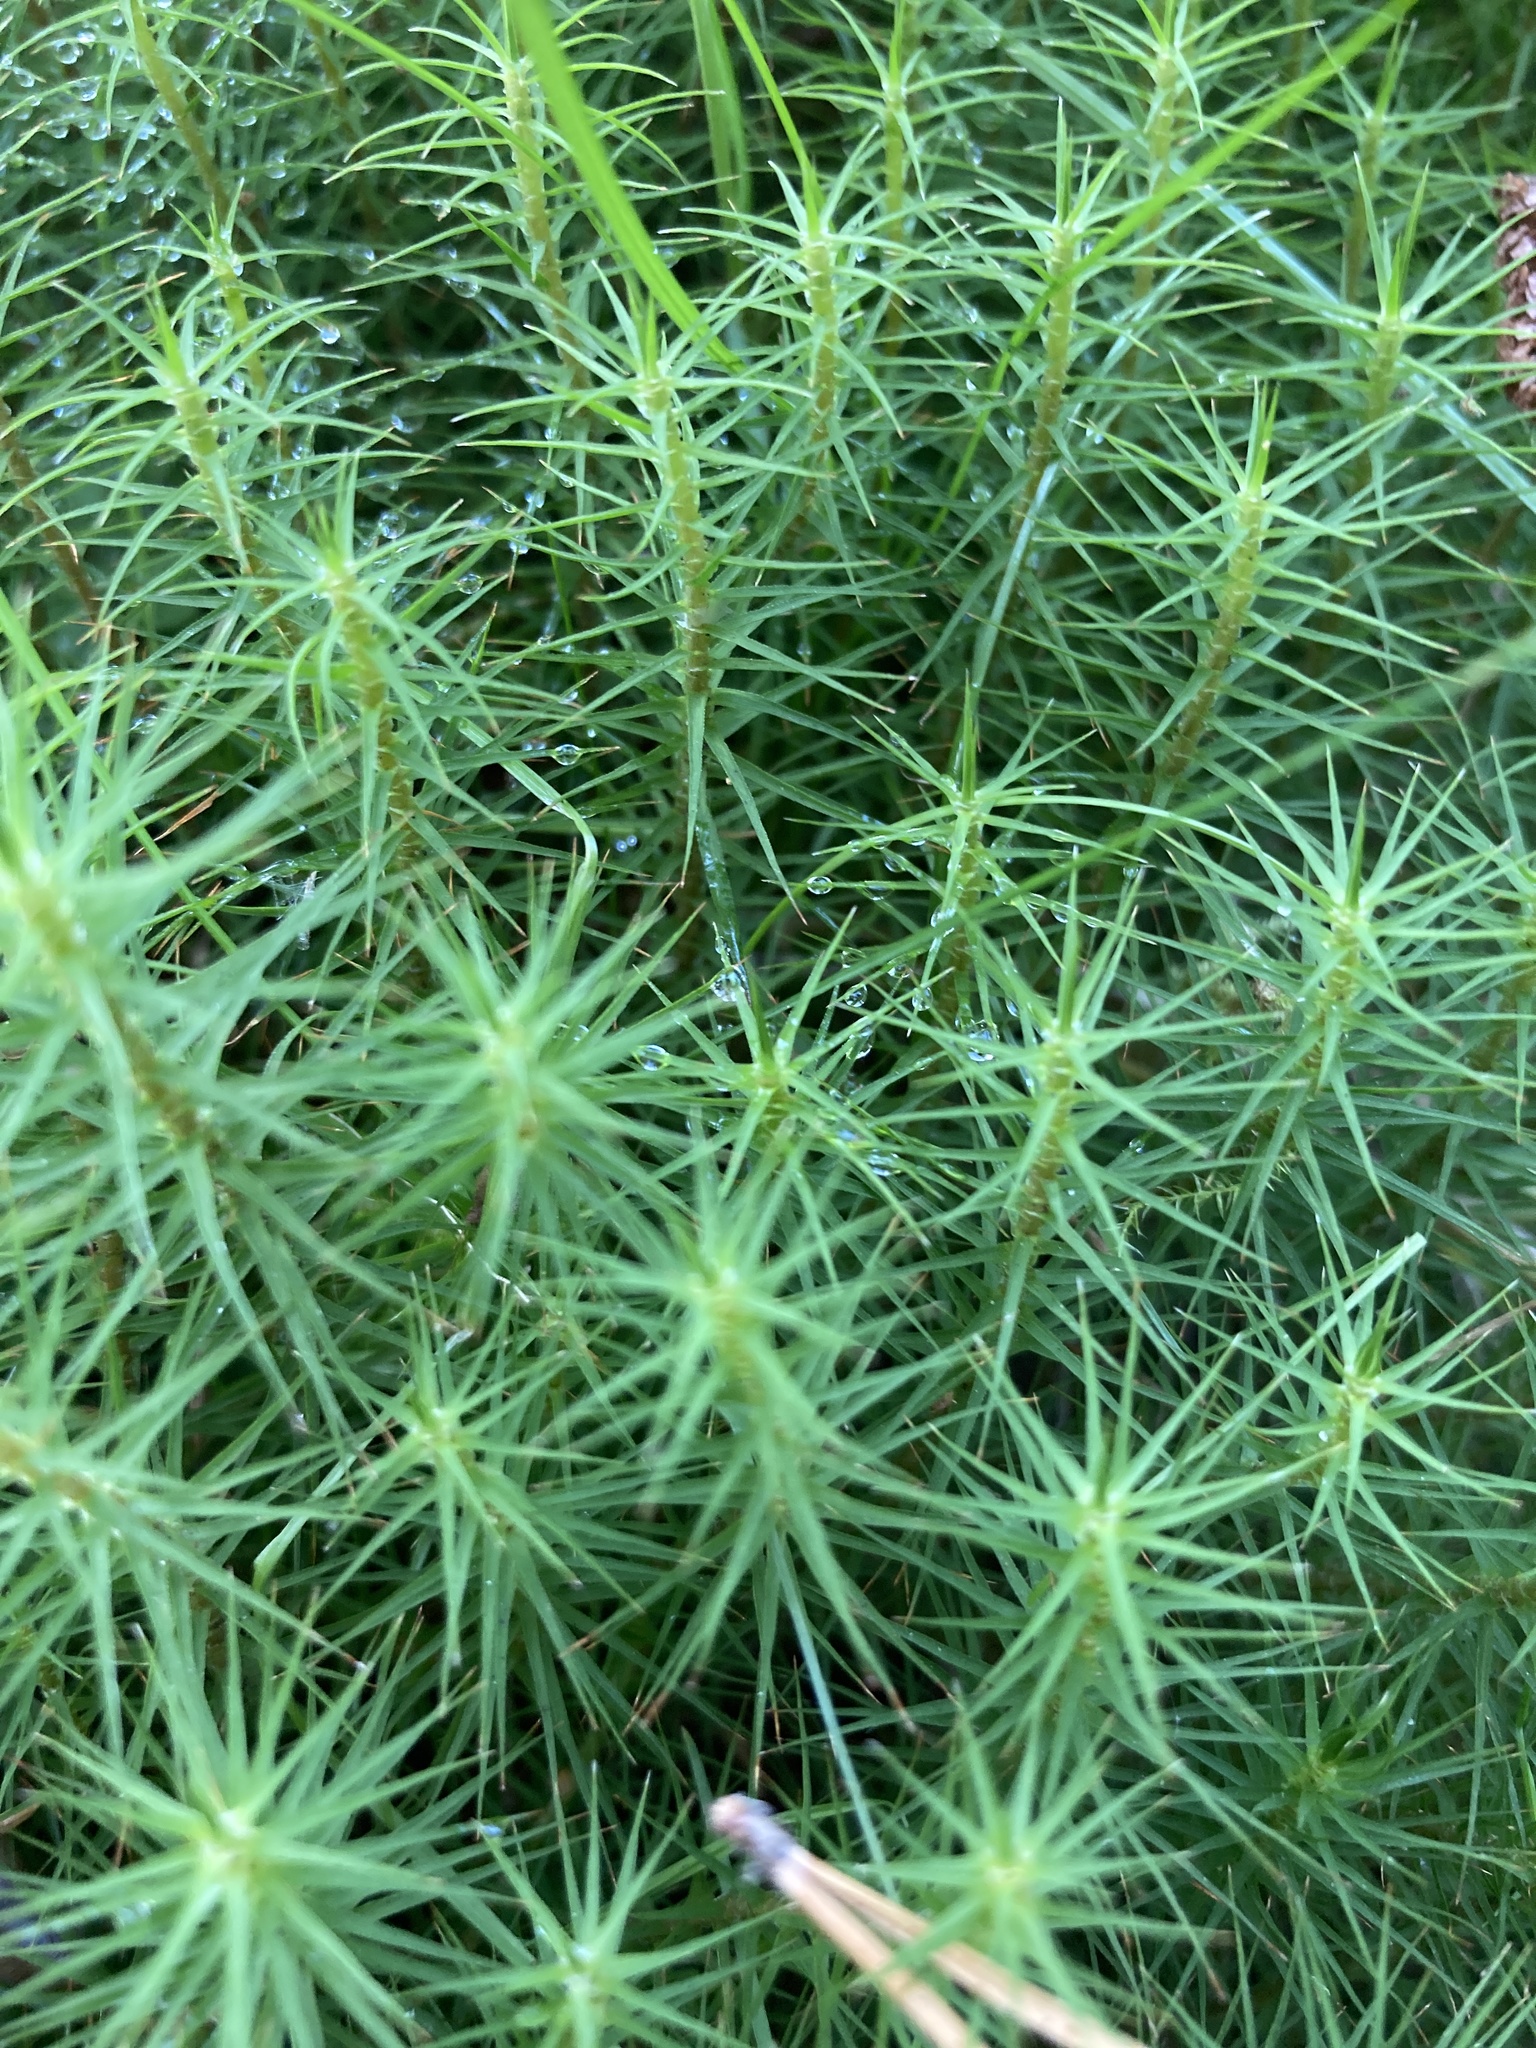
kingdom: Plantae
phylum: Bryophyta
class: Polytrichopsida
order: Polytrichales
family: Polytrichaceae
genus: Polytrichum
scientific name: Polytrichum commune
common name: Common haircap
